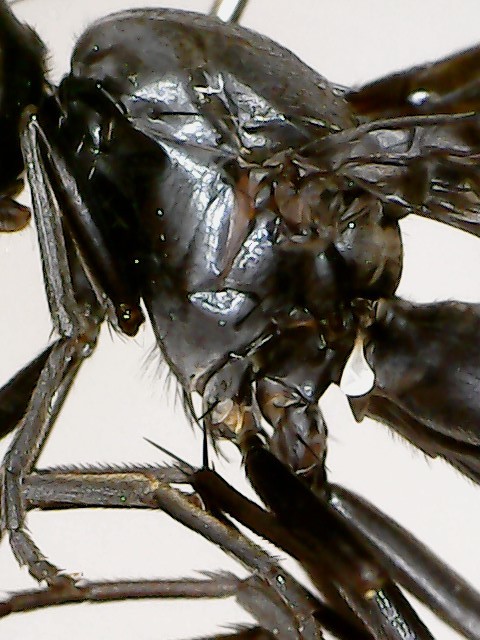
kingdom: Animalia
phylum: Arthropoda
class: Insecta
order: Diptera
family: Ulidiidae
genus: Tritoxa
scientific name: Tritoxa flexa
